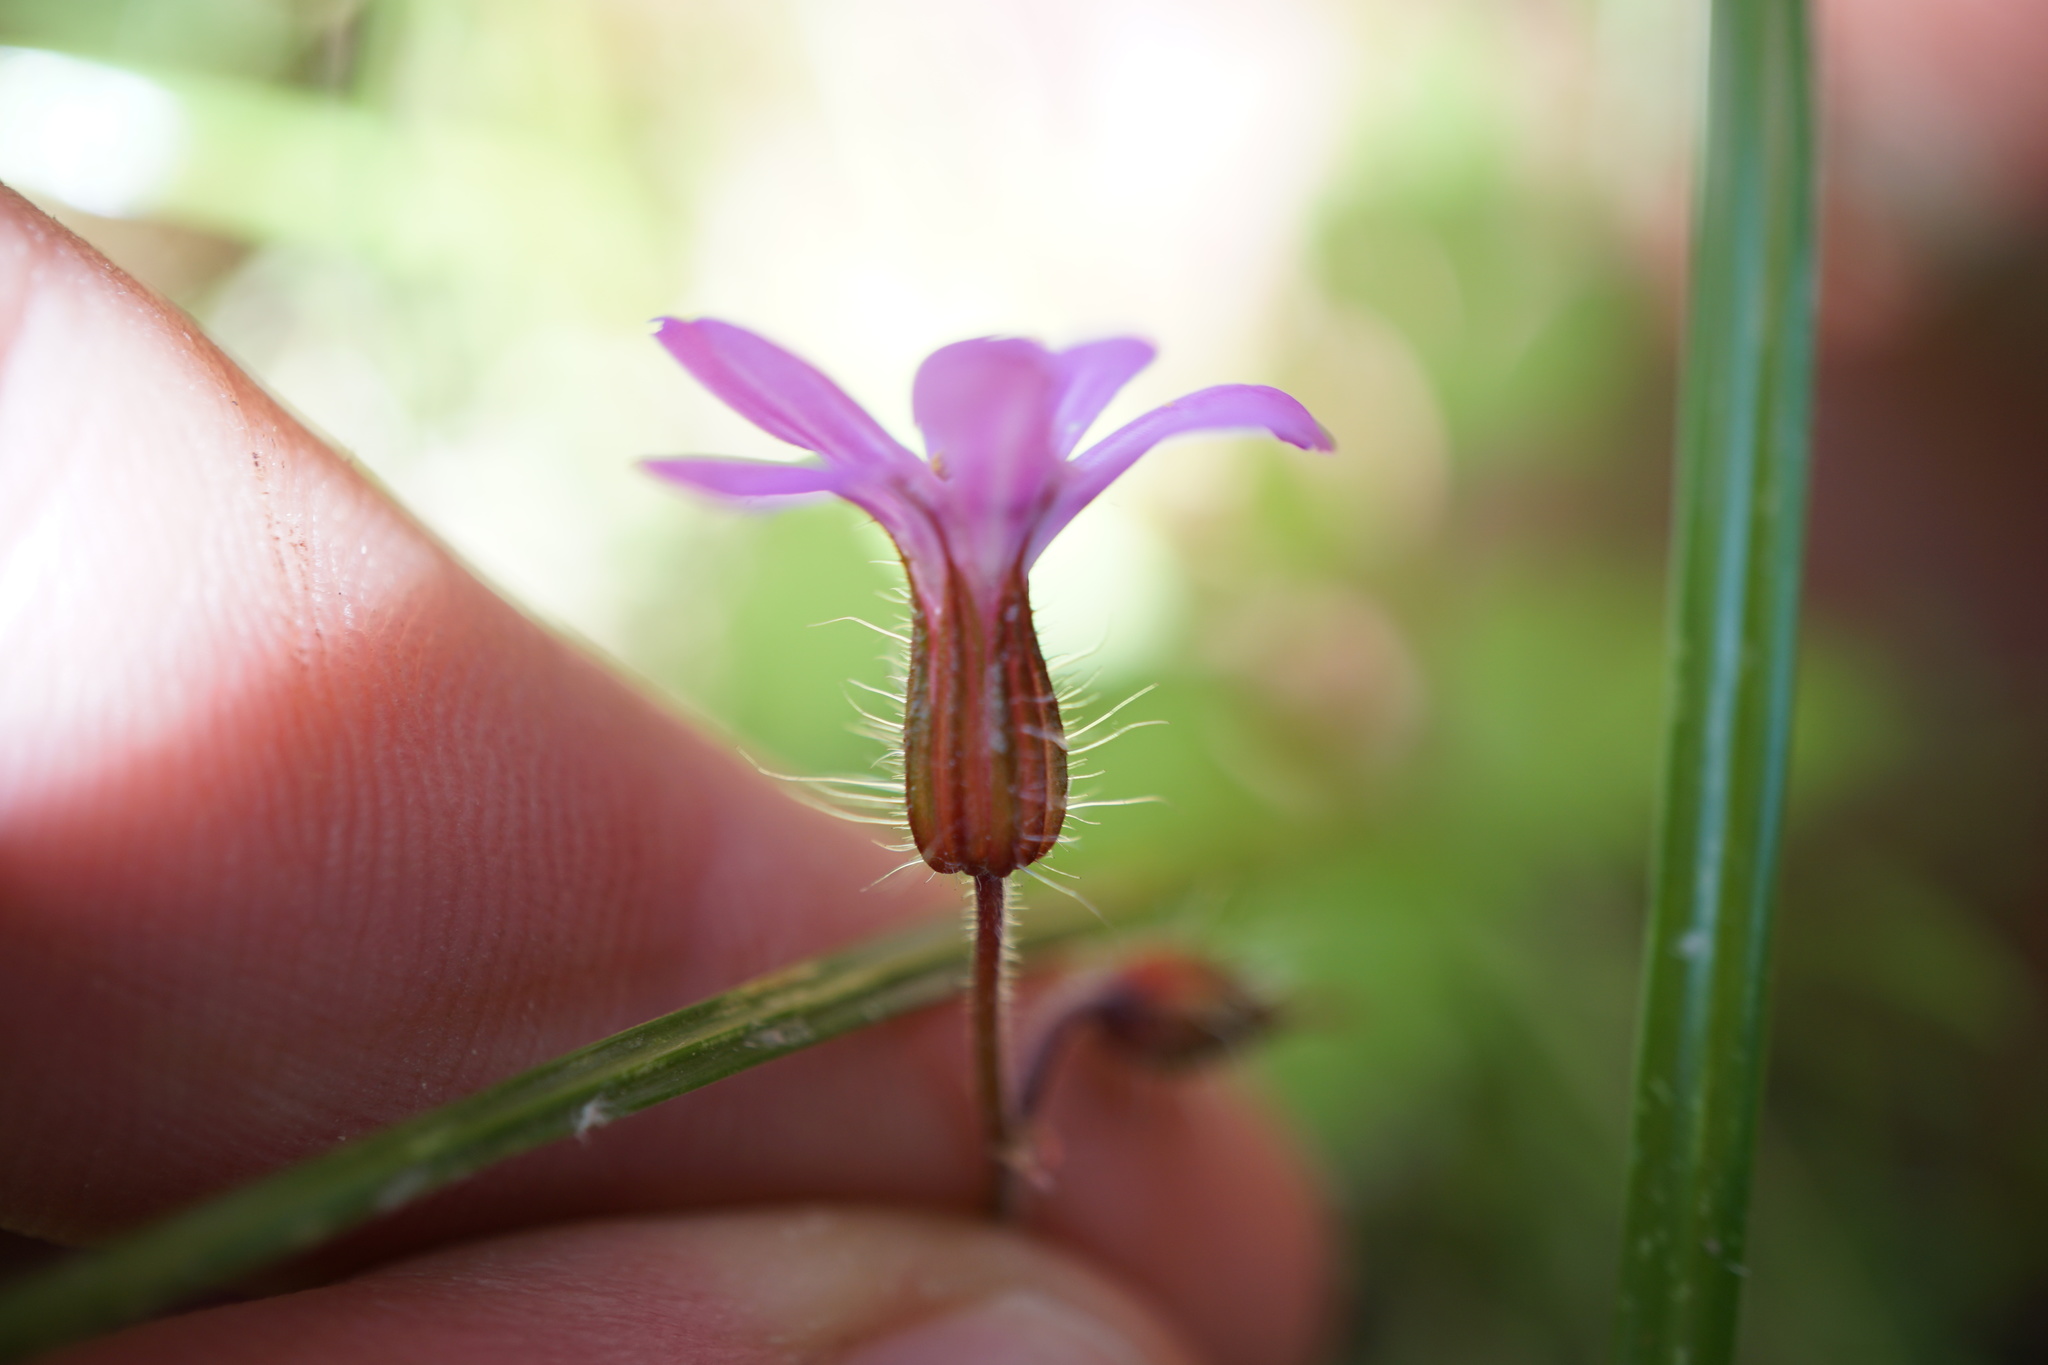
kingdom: Plantae
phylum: Tracheophyta
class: Magnoliopsida
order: Geraniales
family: Geraniaceae
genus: Geranium
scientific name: Geranium robertianum
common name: Herb-robert
